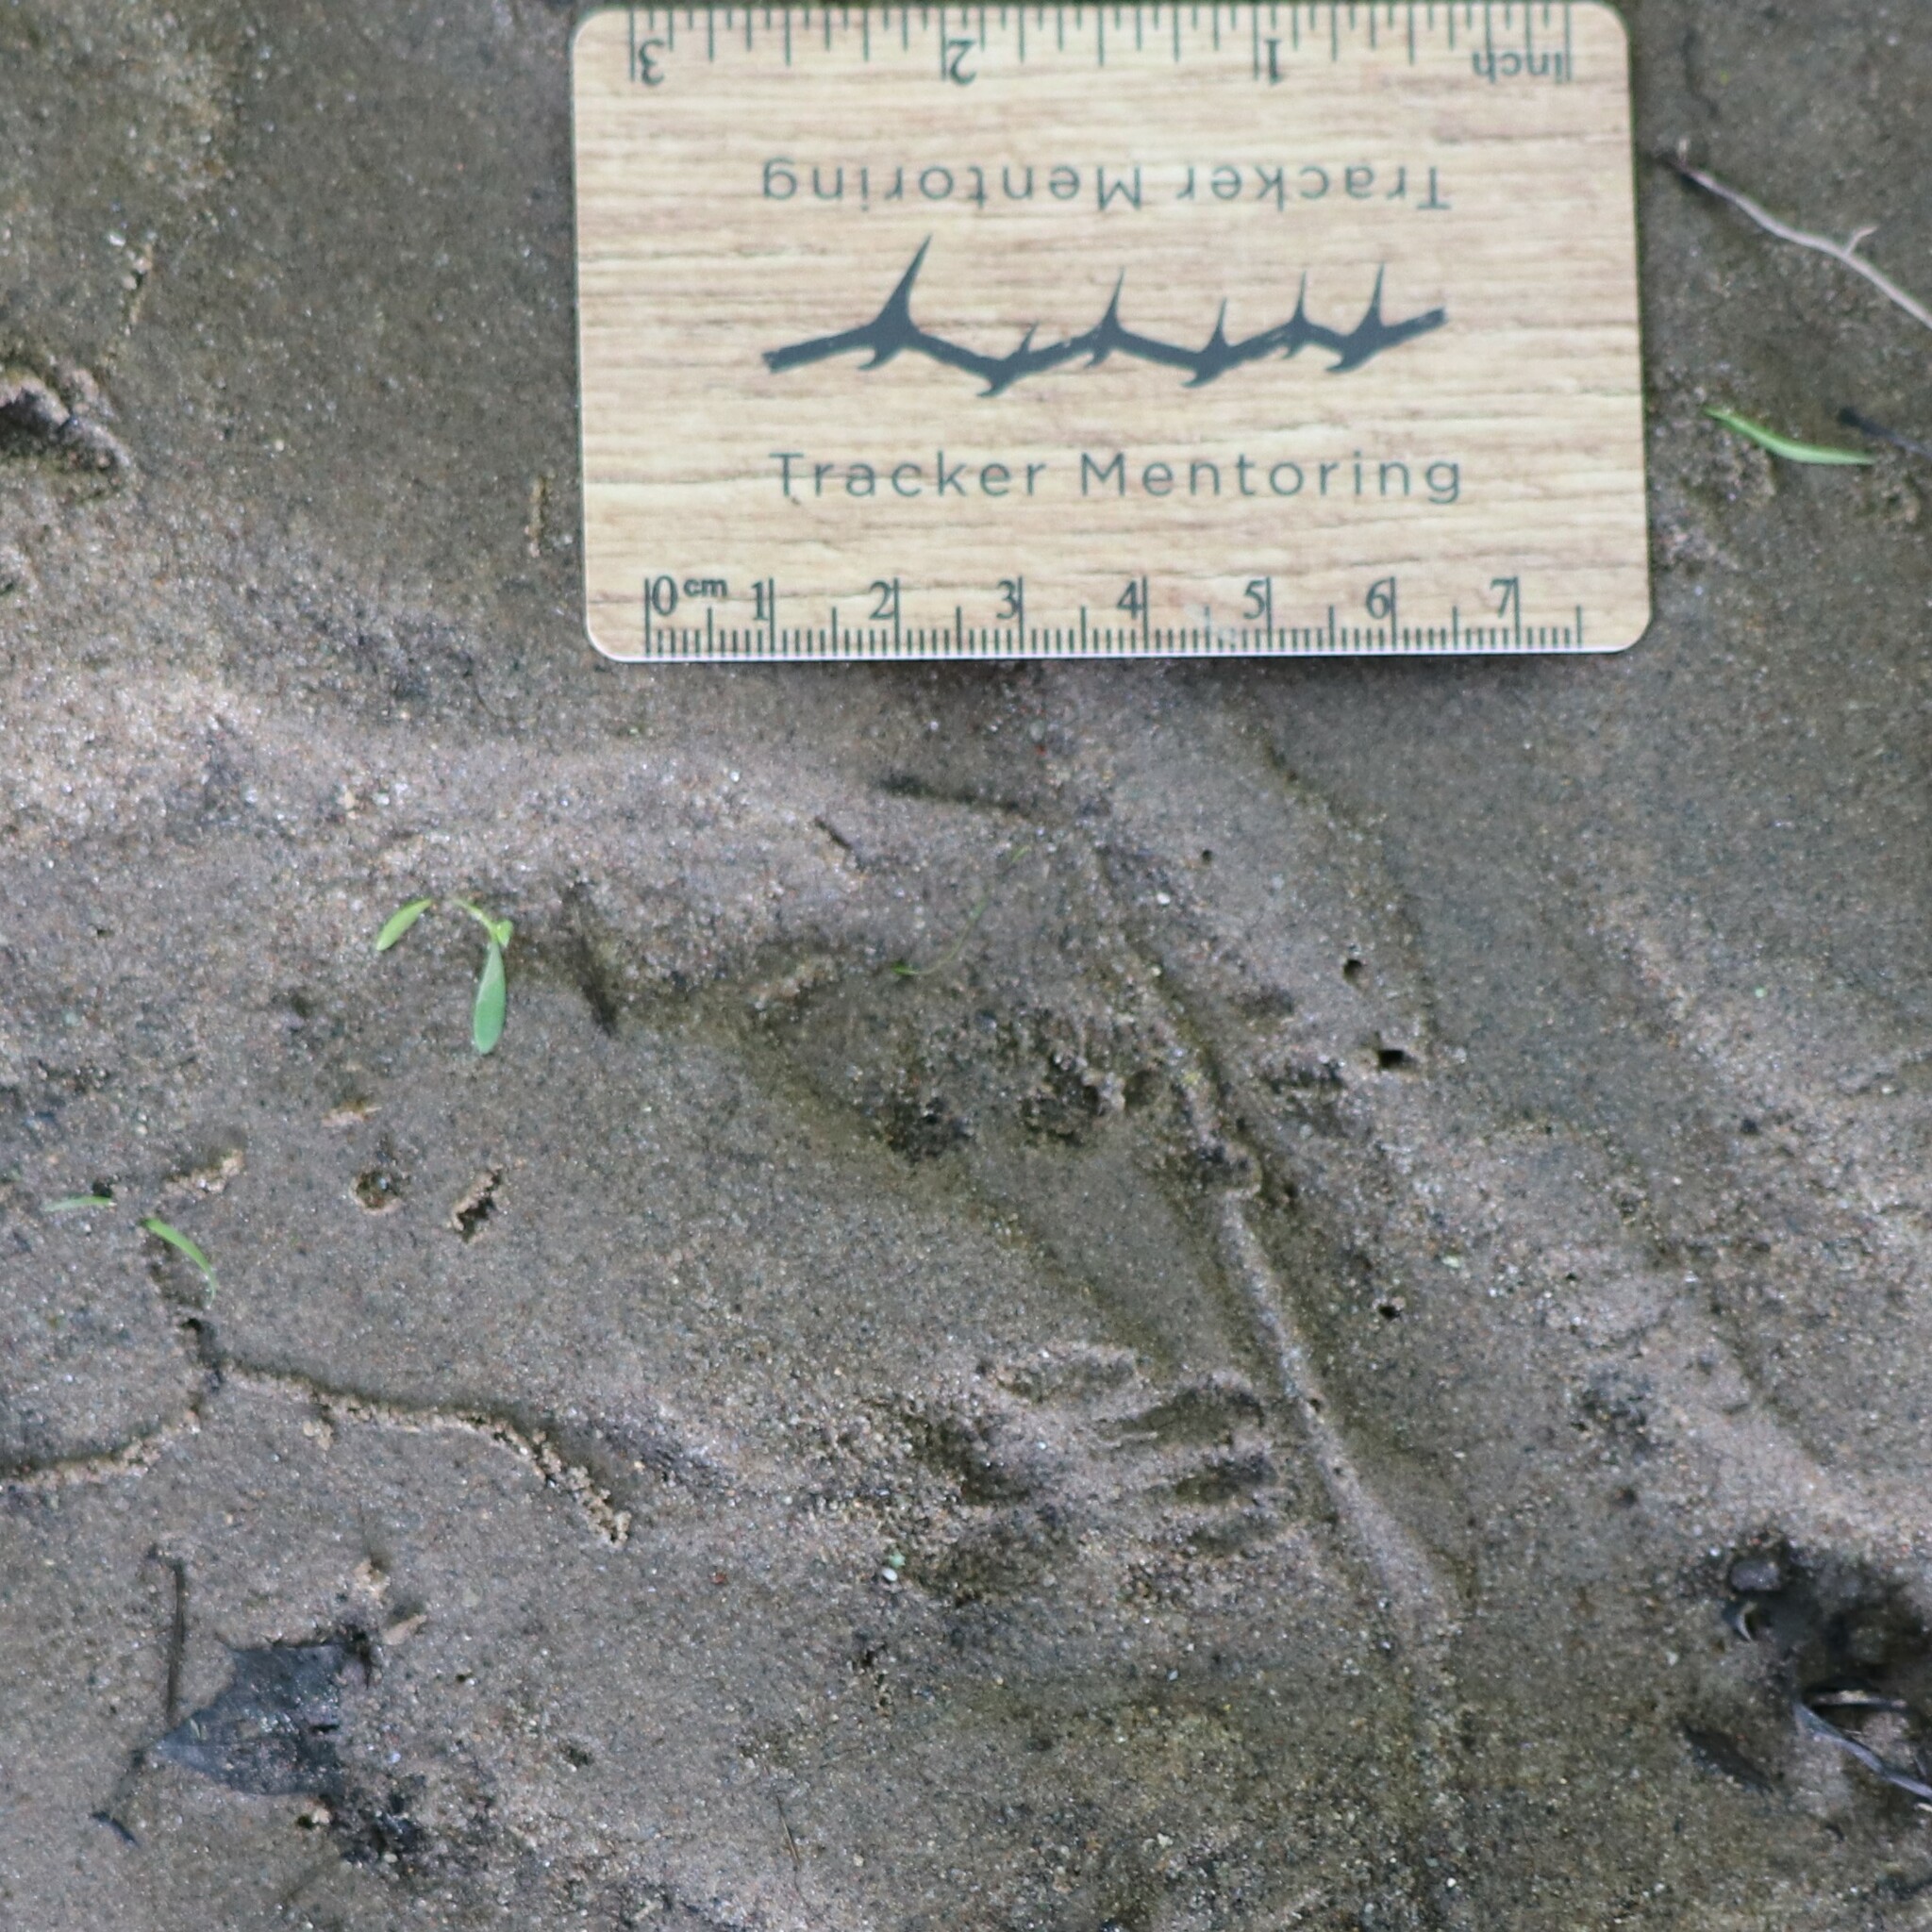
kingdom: Animalia
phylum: Chordata
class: Mammalia
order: Rodentia
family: Sciuridae
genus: Sciurus
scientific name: Sciurus carolinensis
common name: Eastern gray squirrel
